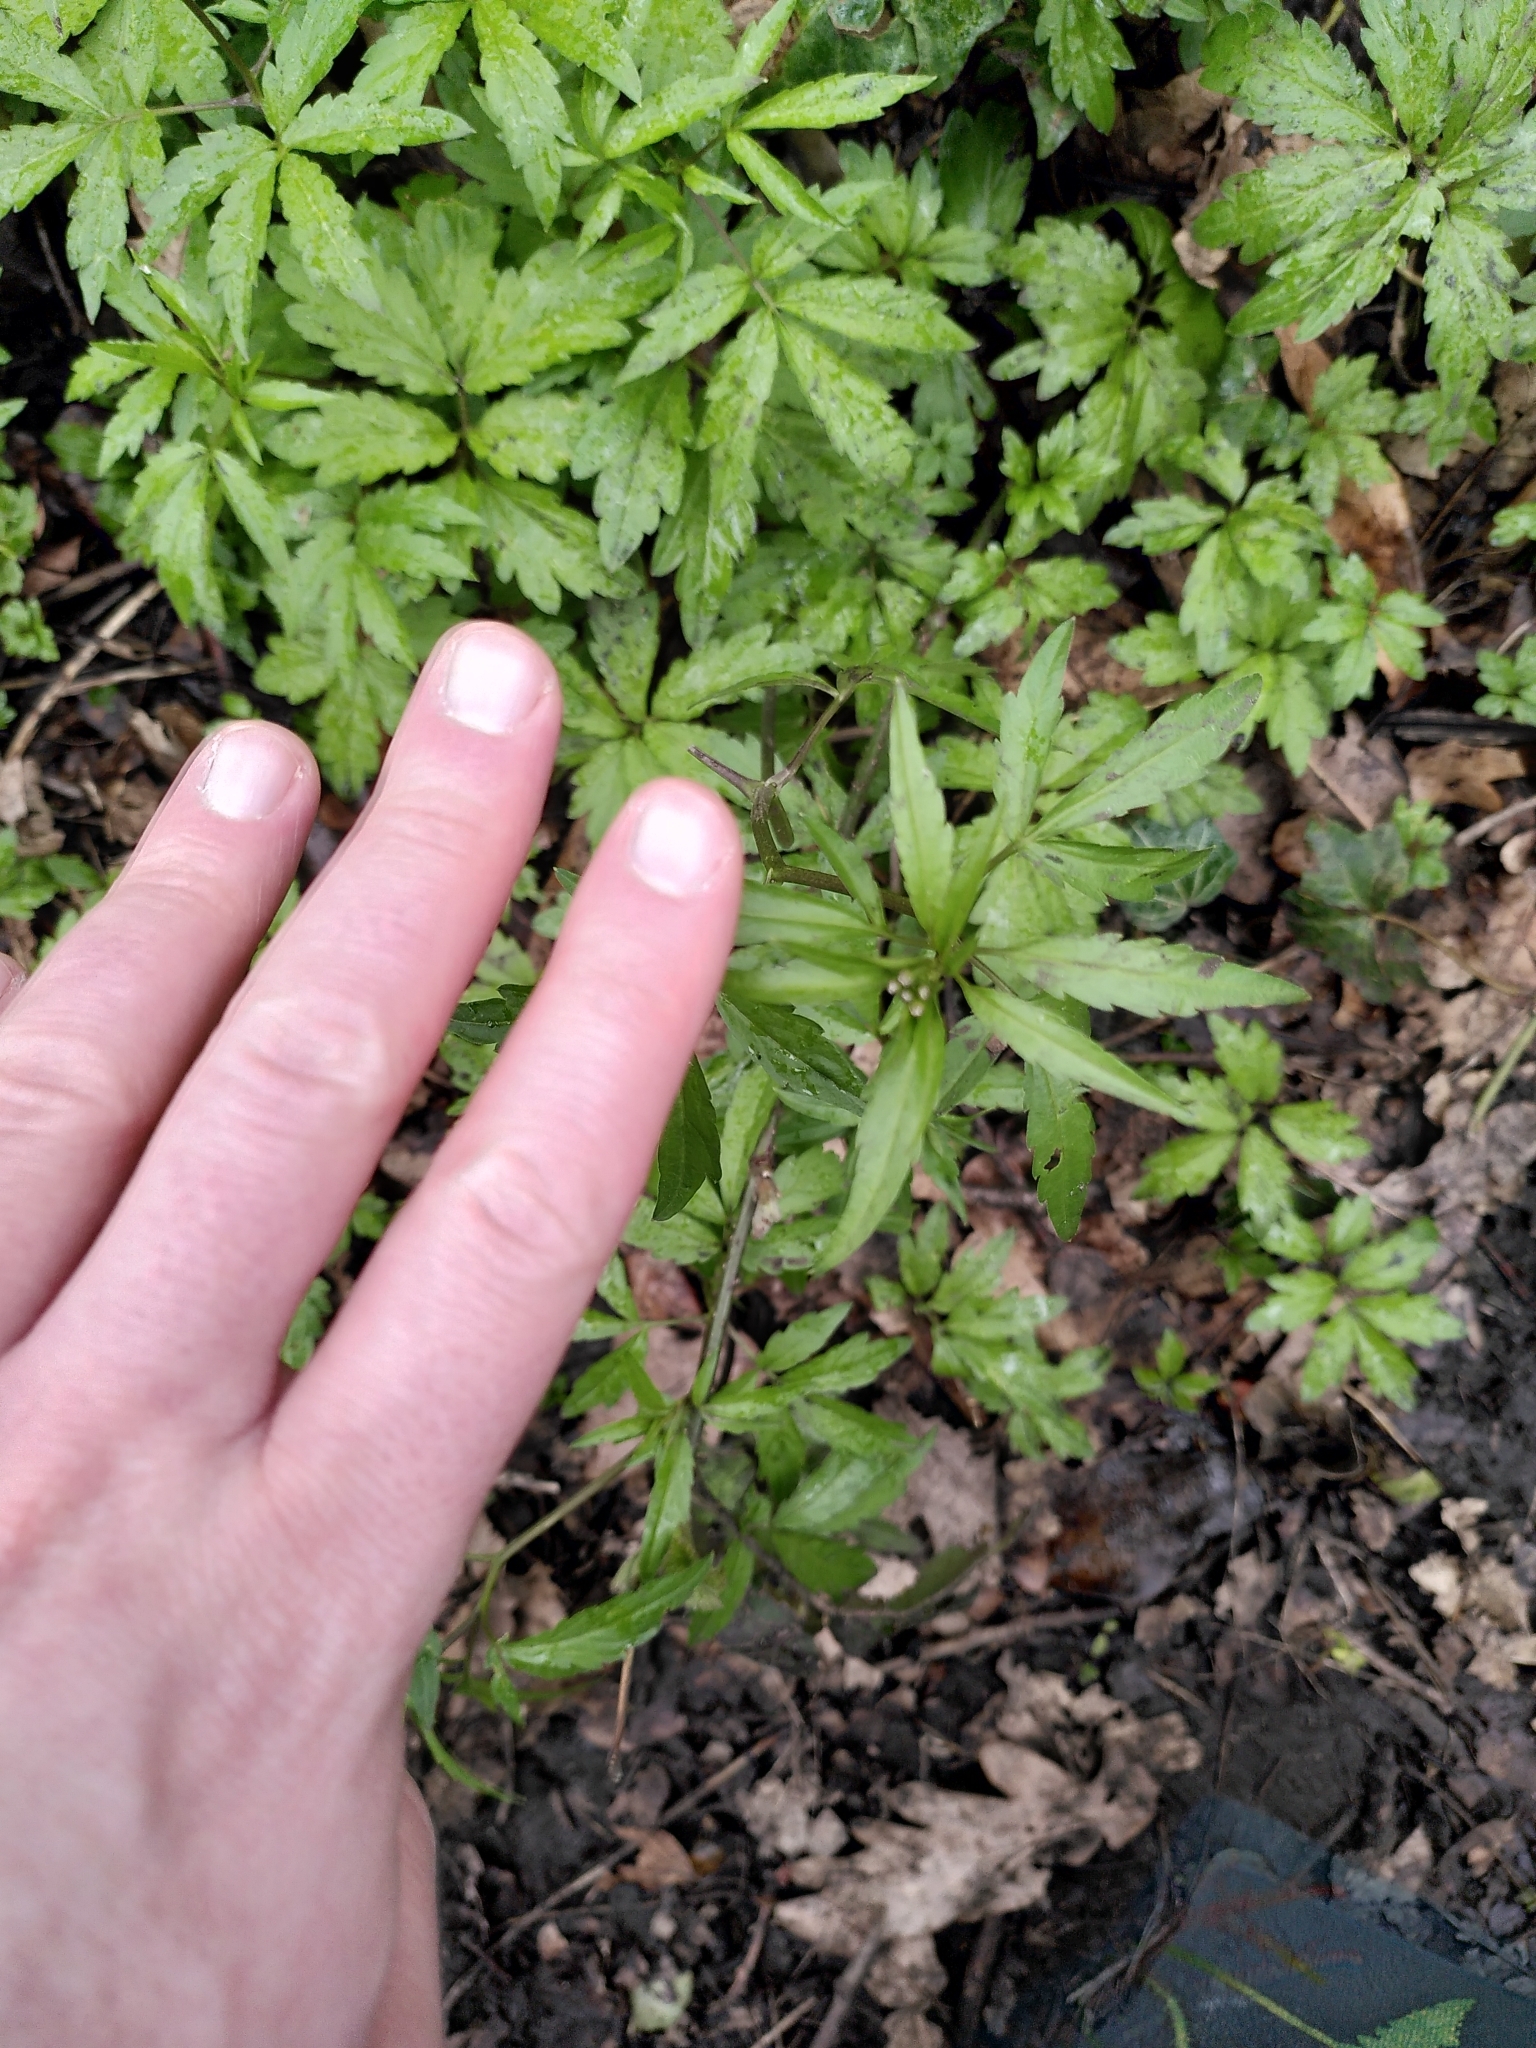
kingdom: Plantae
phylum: Tracheophyta
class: Magnoliopsida
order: Rosales
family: Cannabaceae
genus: Cannabis
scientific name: Cannabis sativa
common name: Hemp
